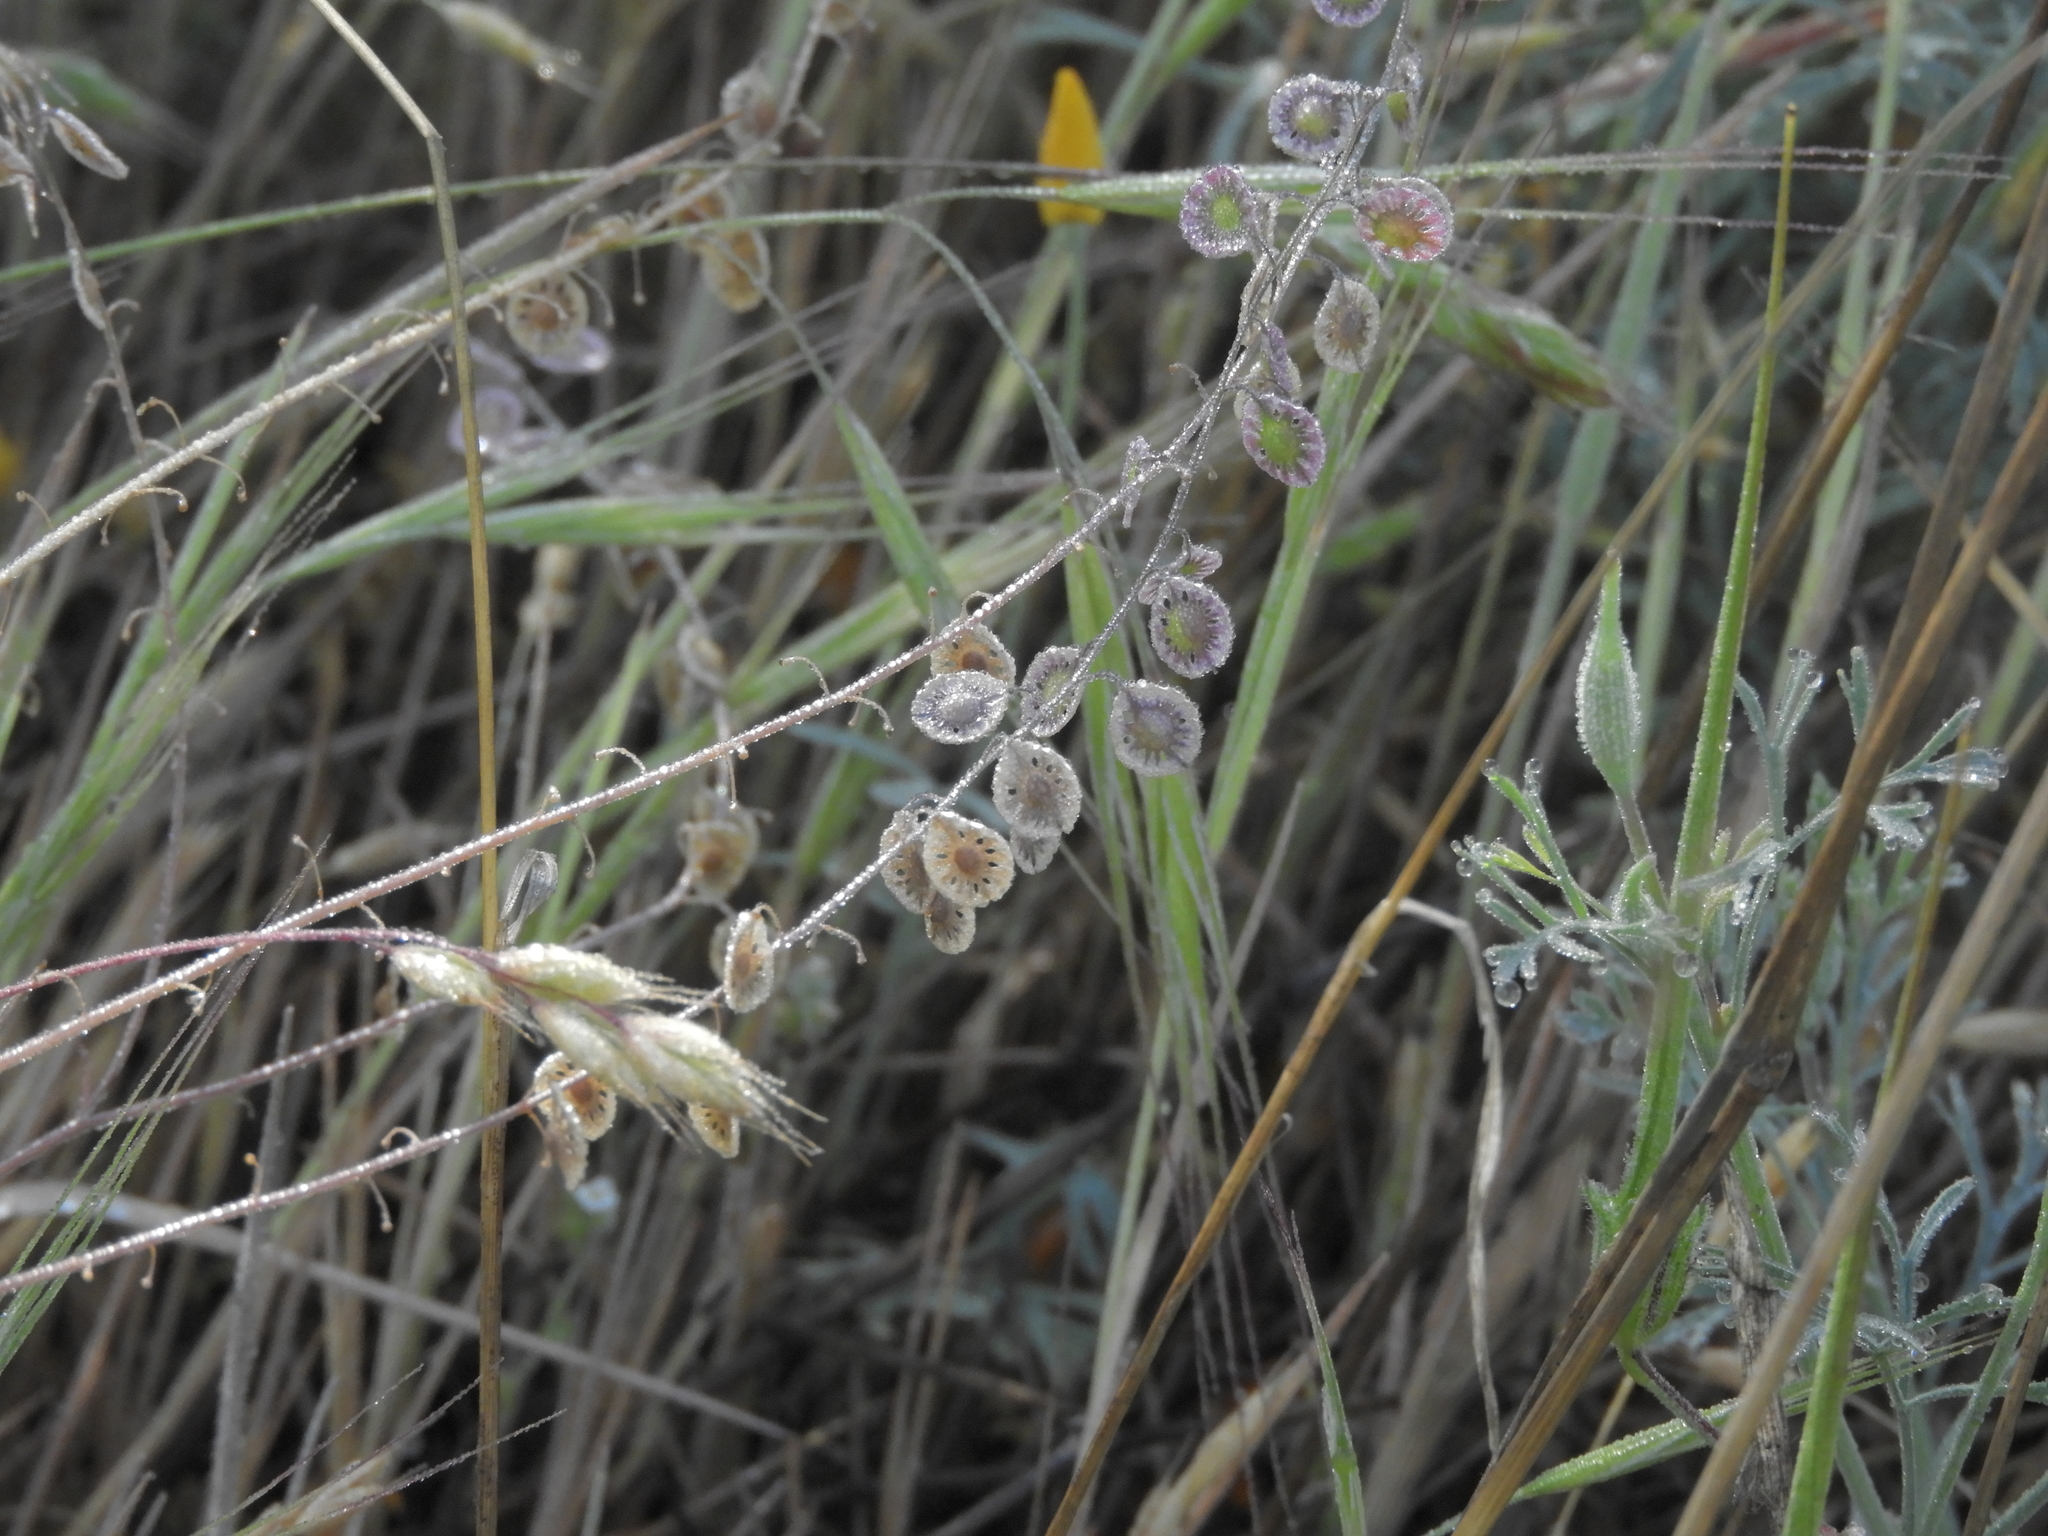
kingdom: Plantae
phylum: Tracheophyta
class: Magnoliopsida
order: Brassicales
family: Brassicaceae
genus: Thysanocarpus
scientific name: Thysanocarpus curvipes
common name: Sand fringepod
